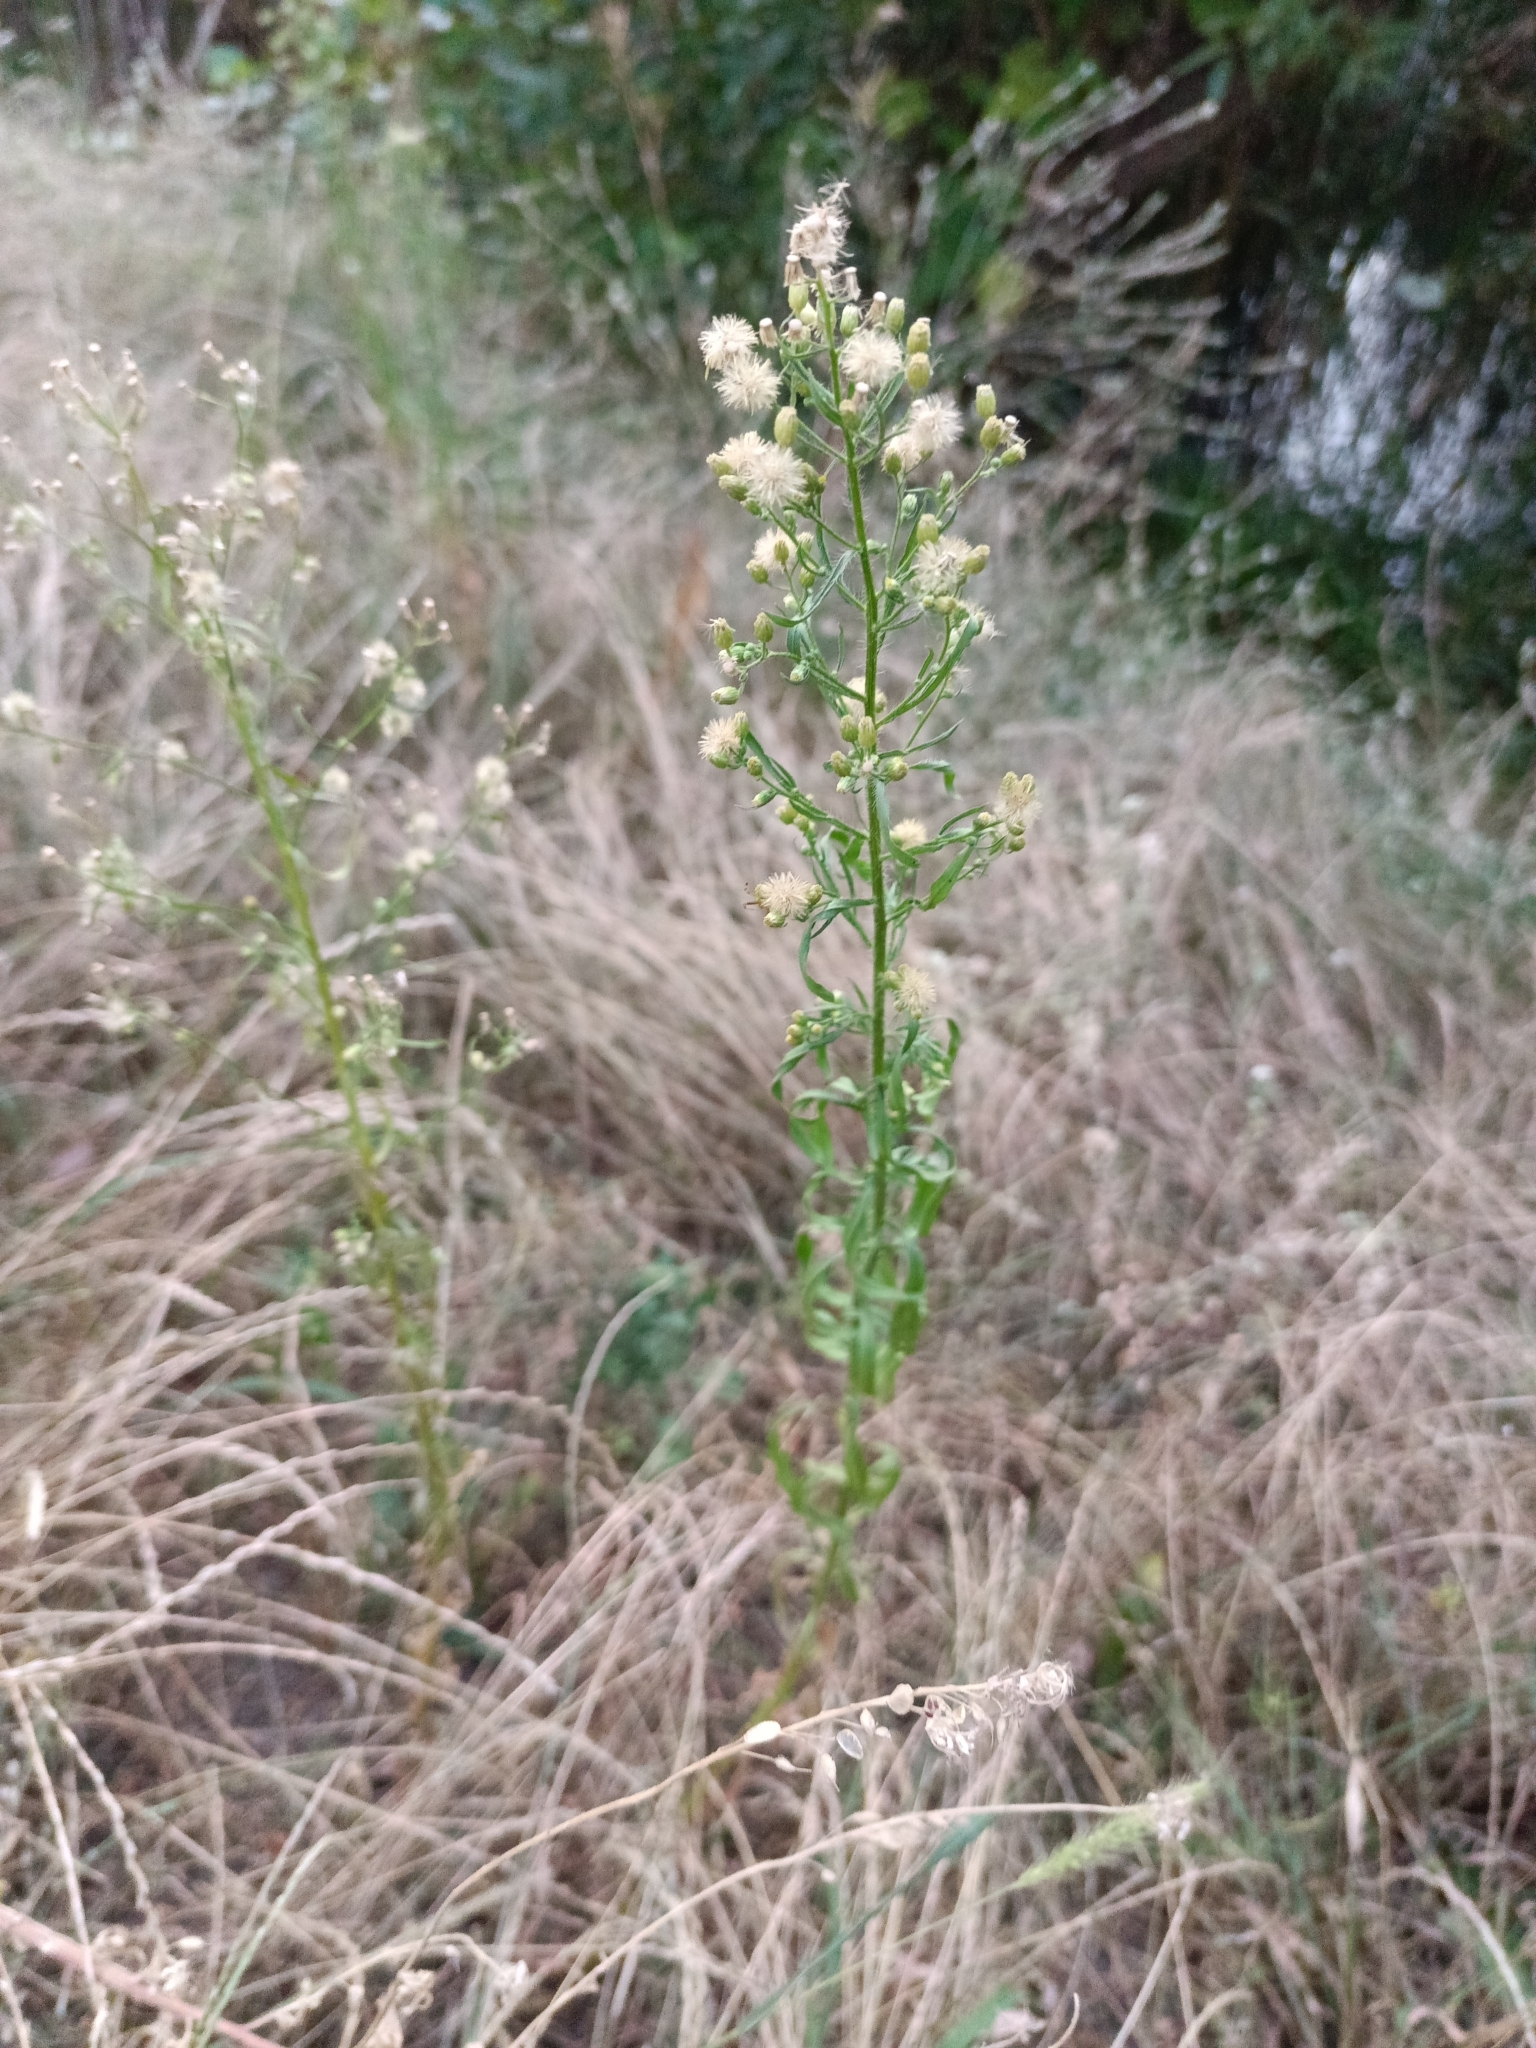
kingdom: Plantae
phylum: Tracheophyta
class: Magnoliopsida
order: Asterales
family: Asteraceae
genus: Erigeron
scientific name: Erigeron canadensis
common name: Canadian fleabane
